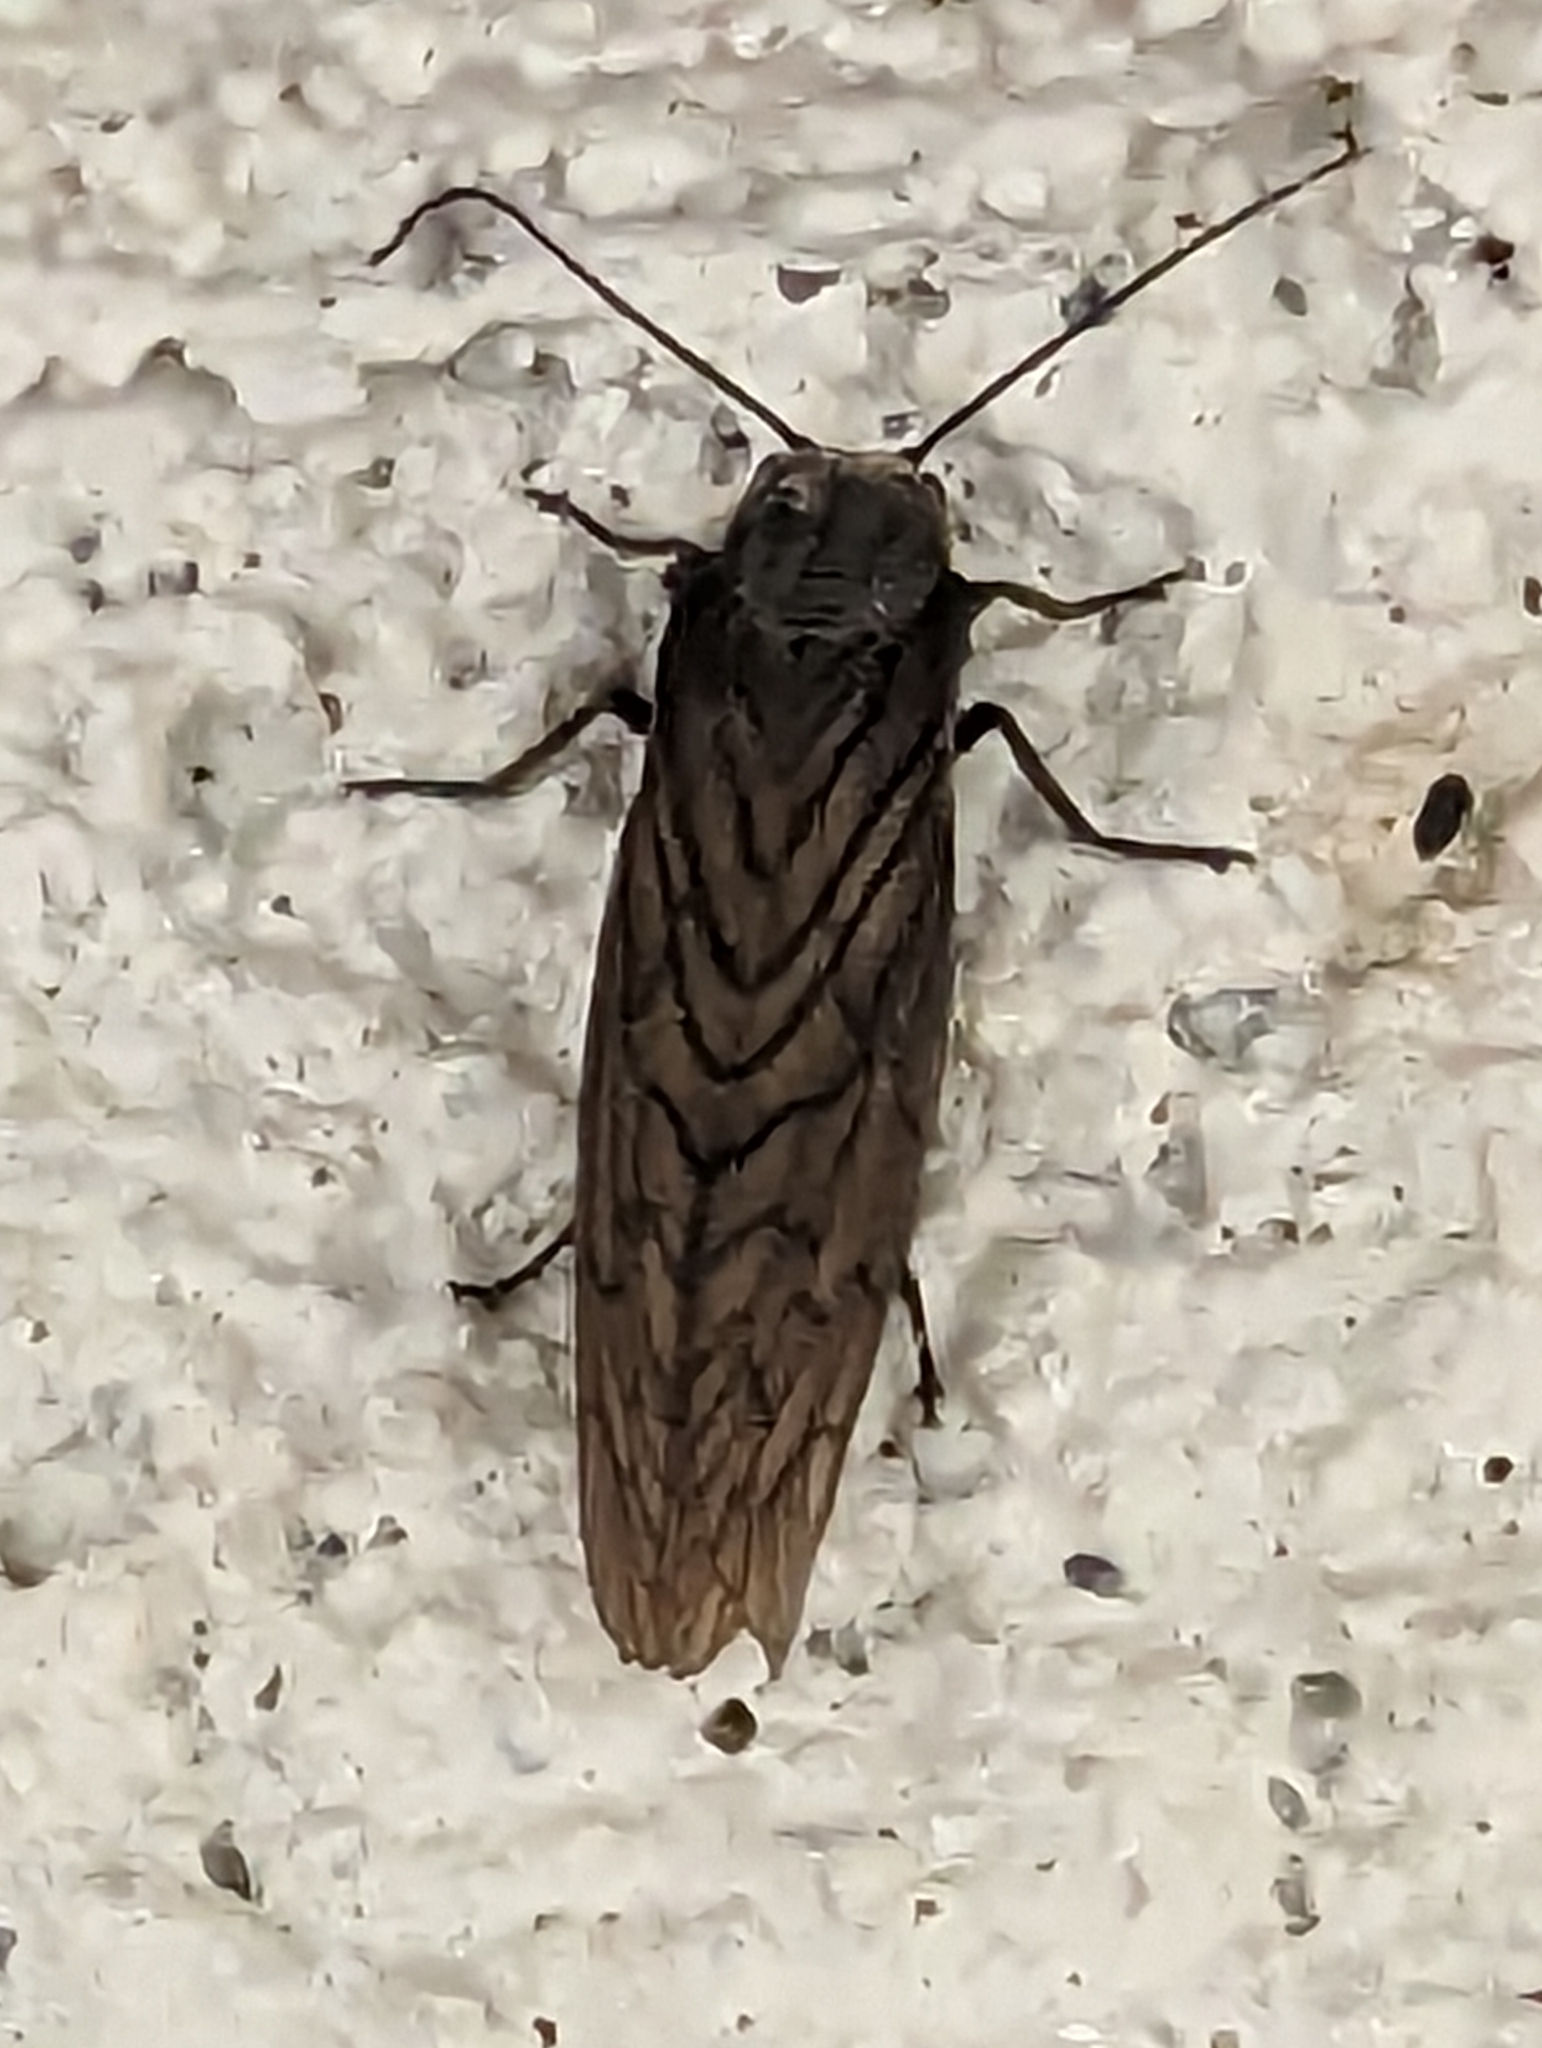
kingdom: Animalia
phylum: Arthropoda
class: Insecta
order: Megaloptera
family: Sialidae
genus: Sialis
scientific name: Sialis
